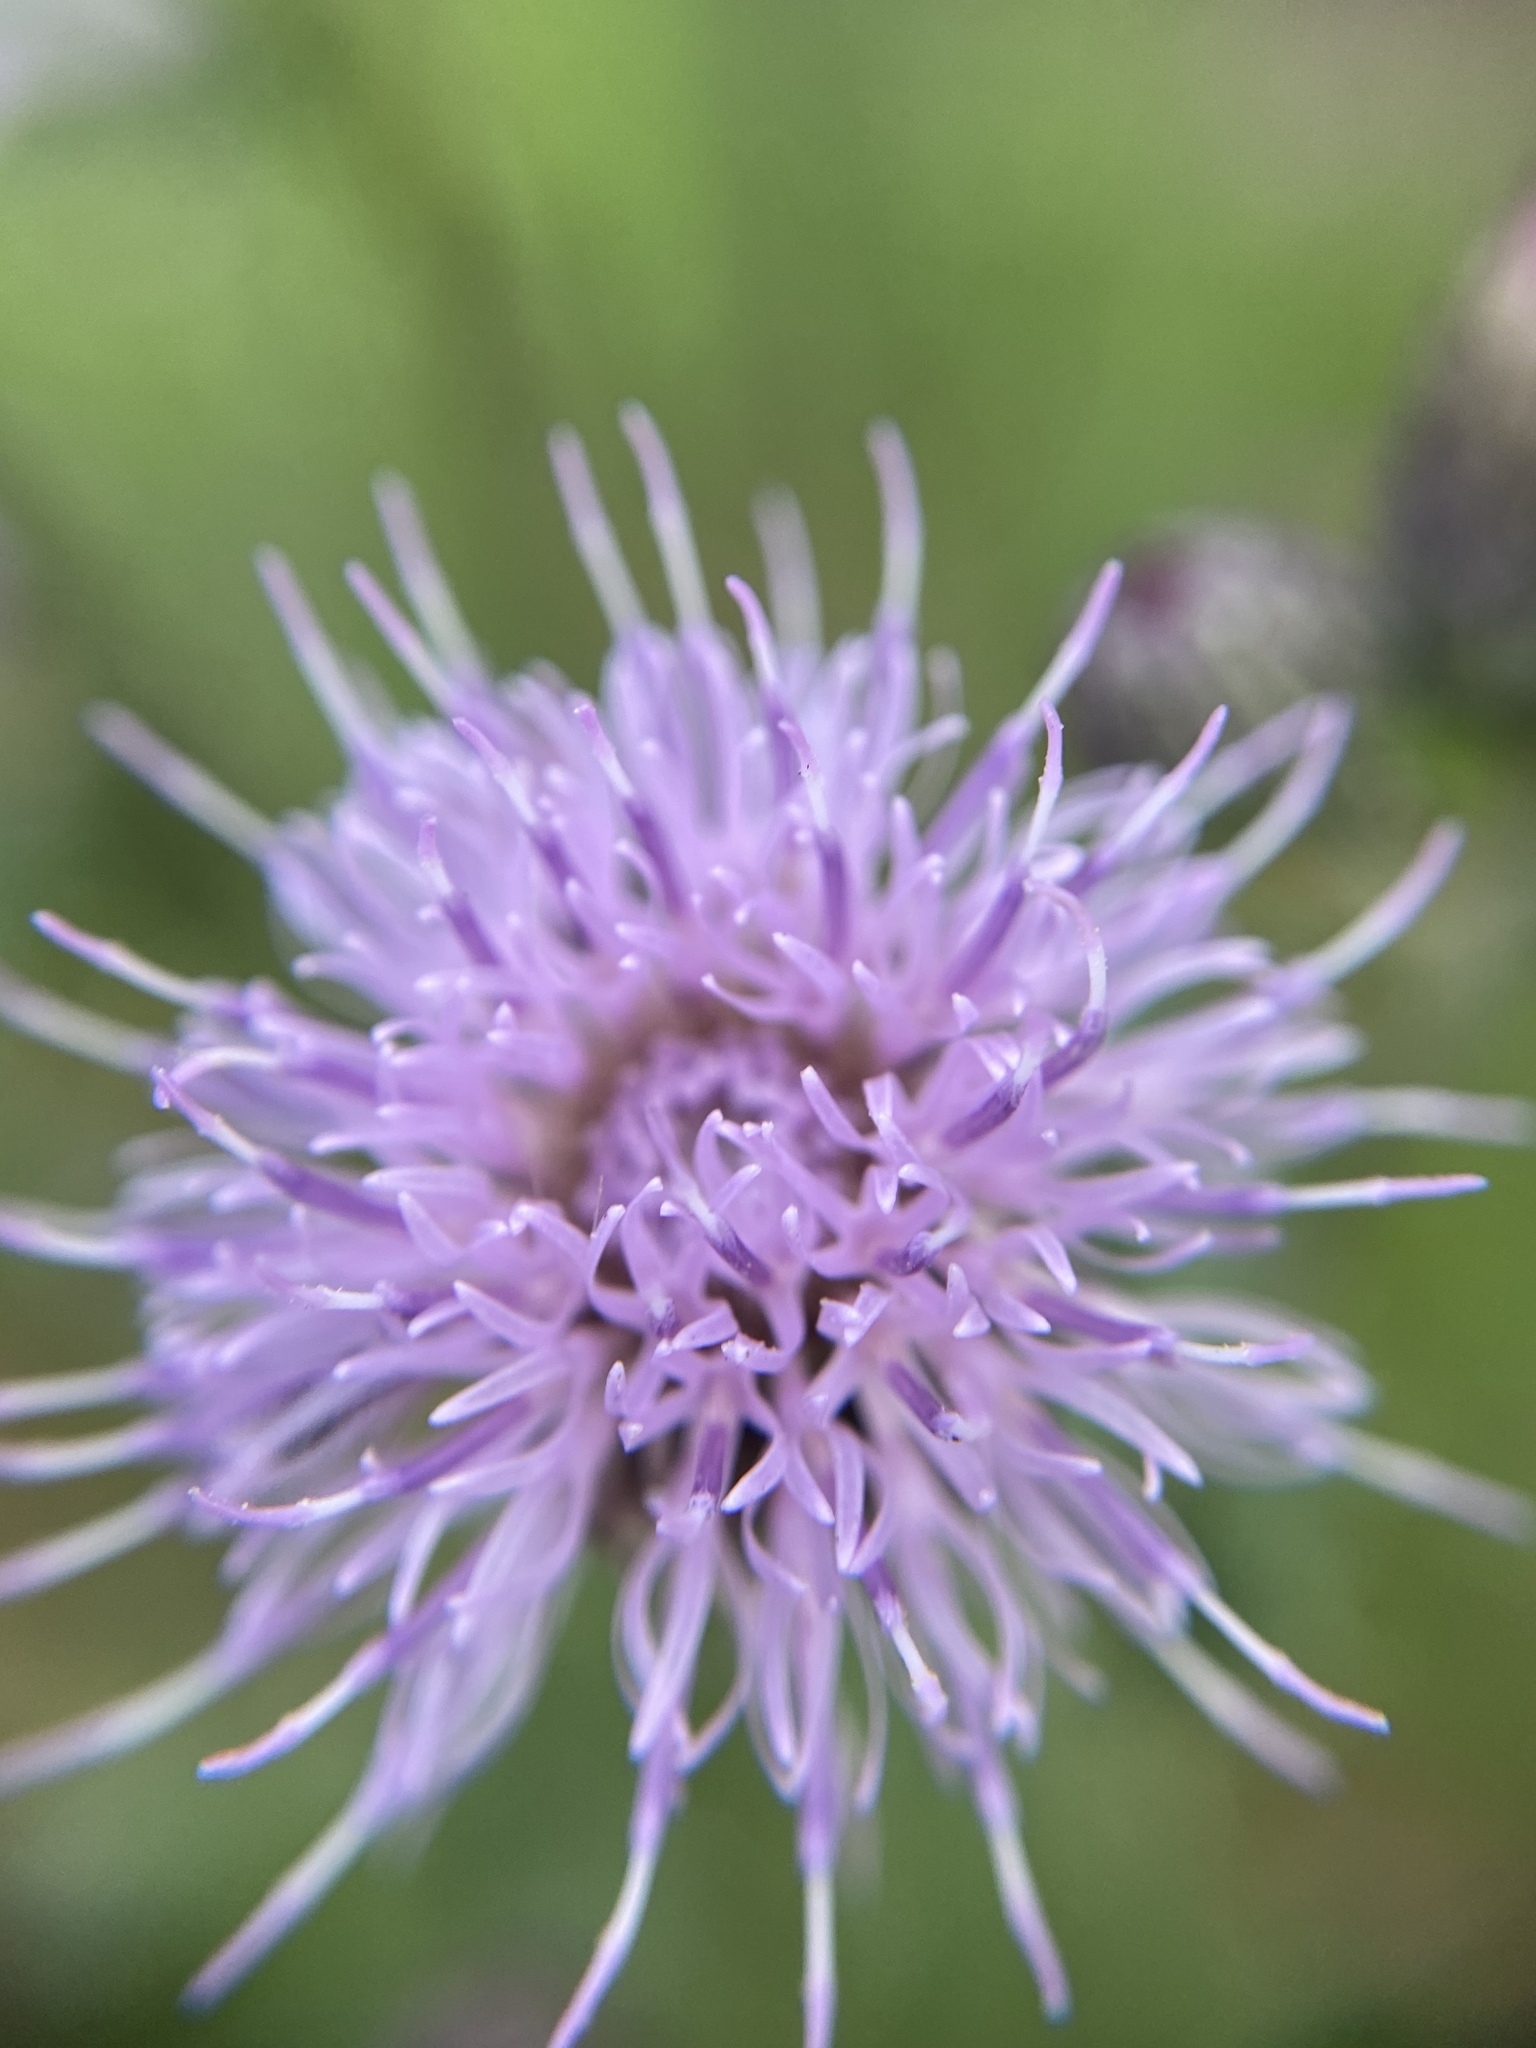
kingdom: Plantae
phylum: Tracheophyta
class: Magnoliopsida
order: Asterales
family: Asteraceae
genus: Cirsium
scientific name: Cirsium arvense
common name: Creeping thistle
